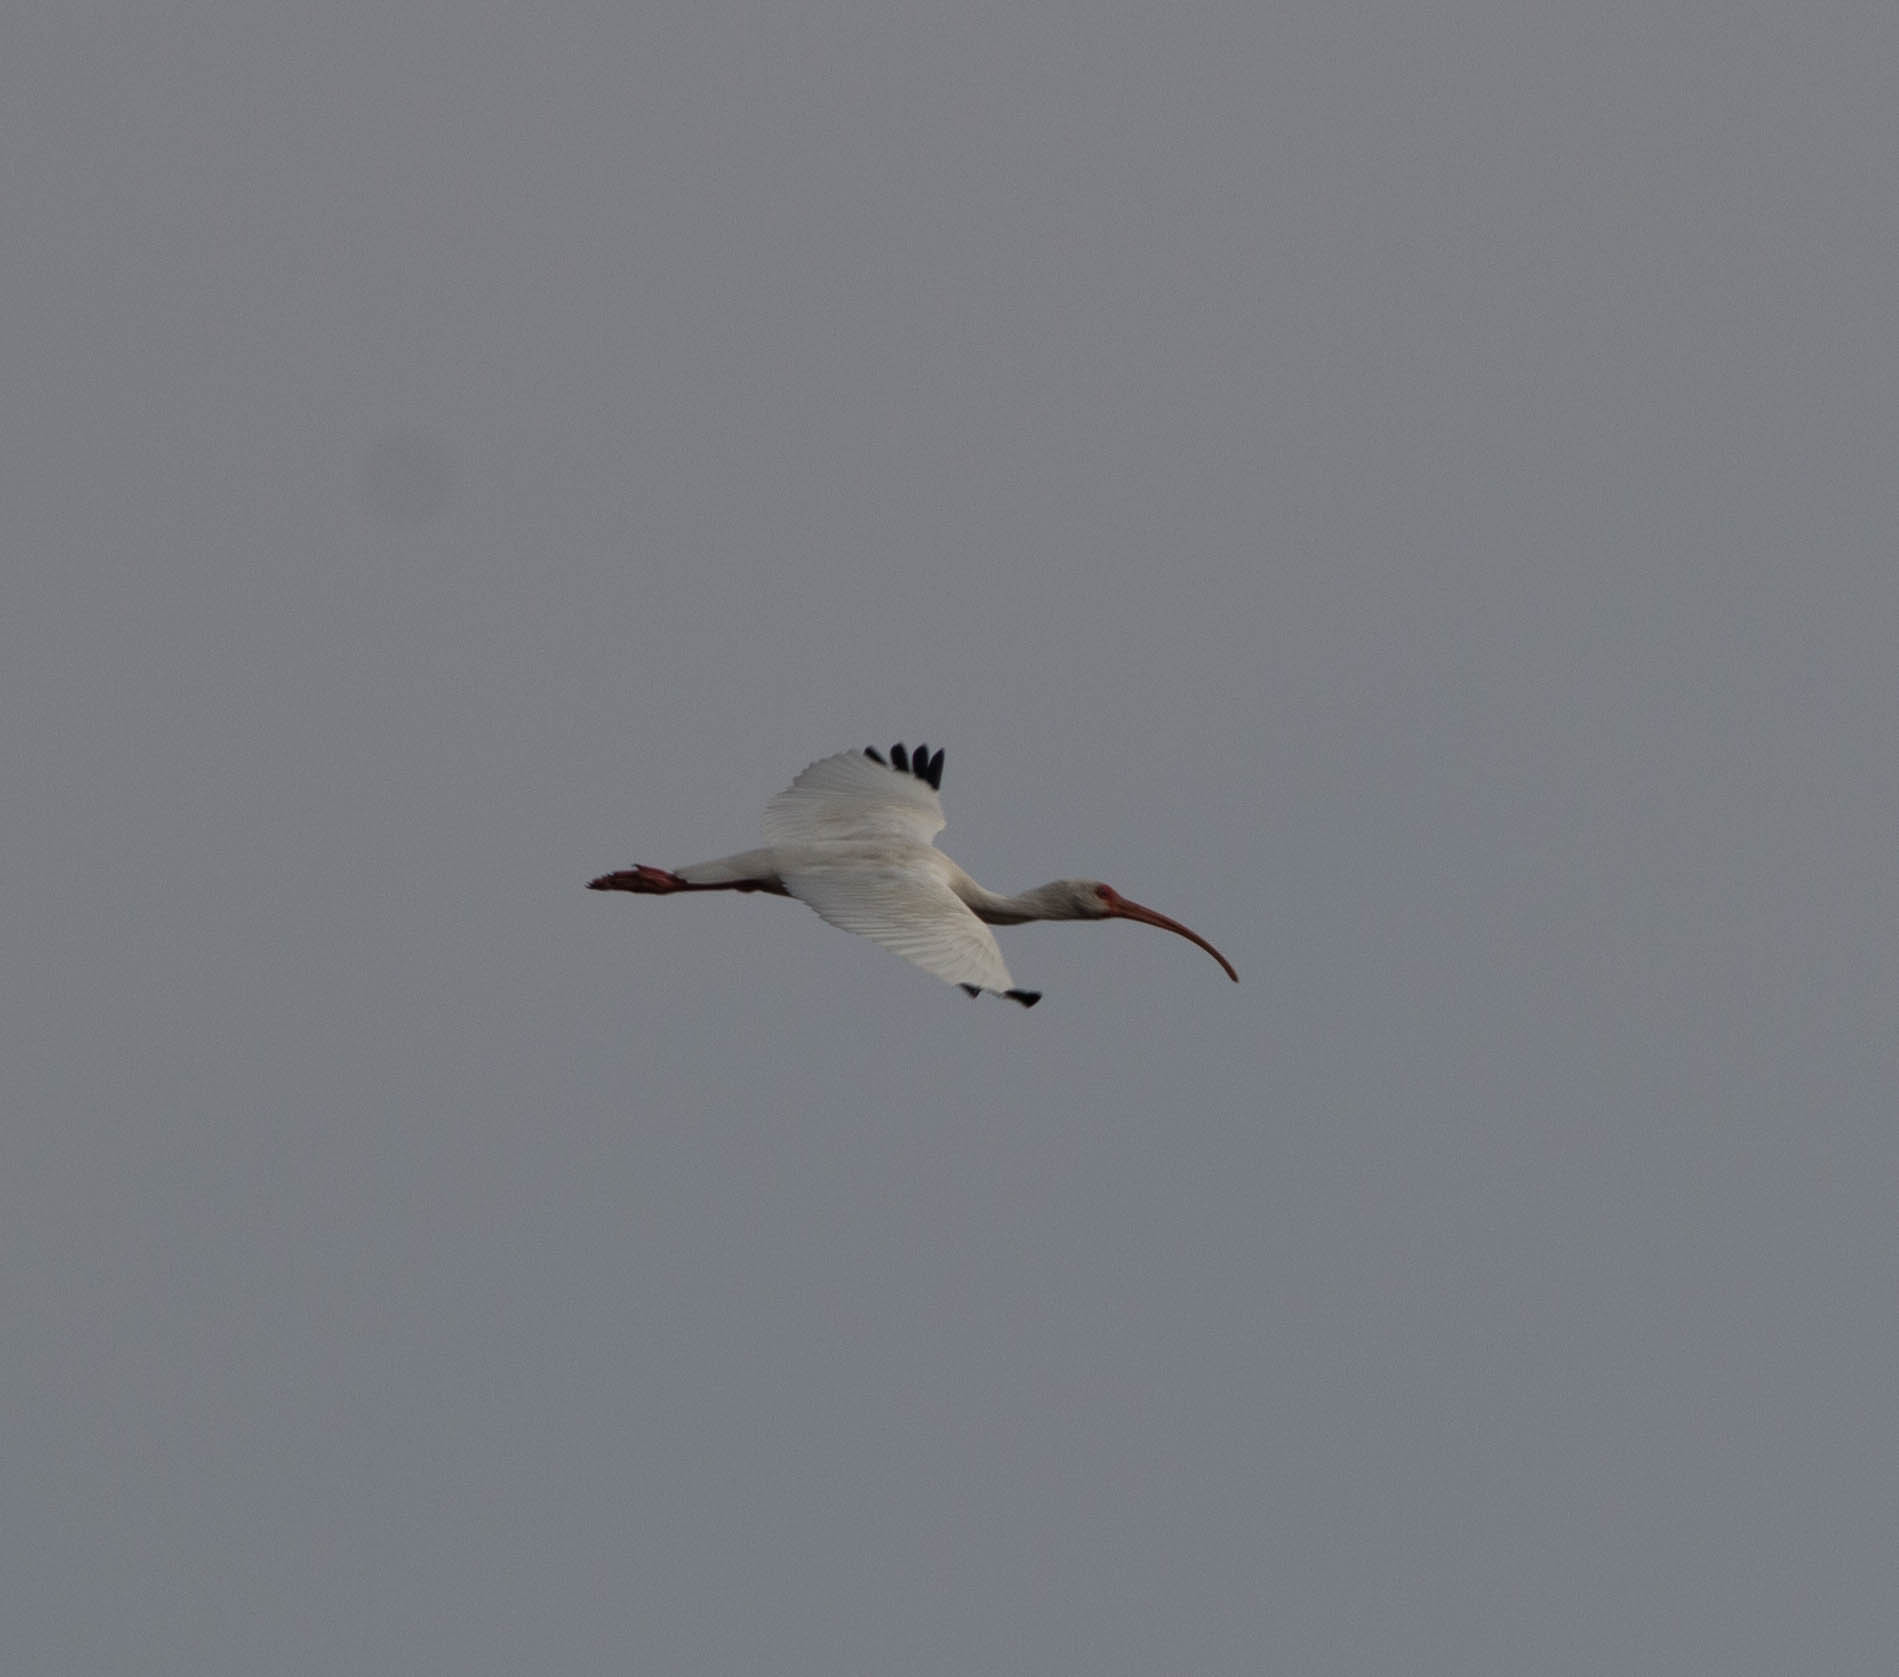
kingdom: Animalia
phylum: Chordata
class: Aves
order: Pelecaniformes
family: Threskiornithidae
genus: Eudocimus
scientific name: Eudocimus albus
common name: White ibis
